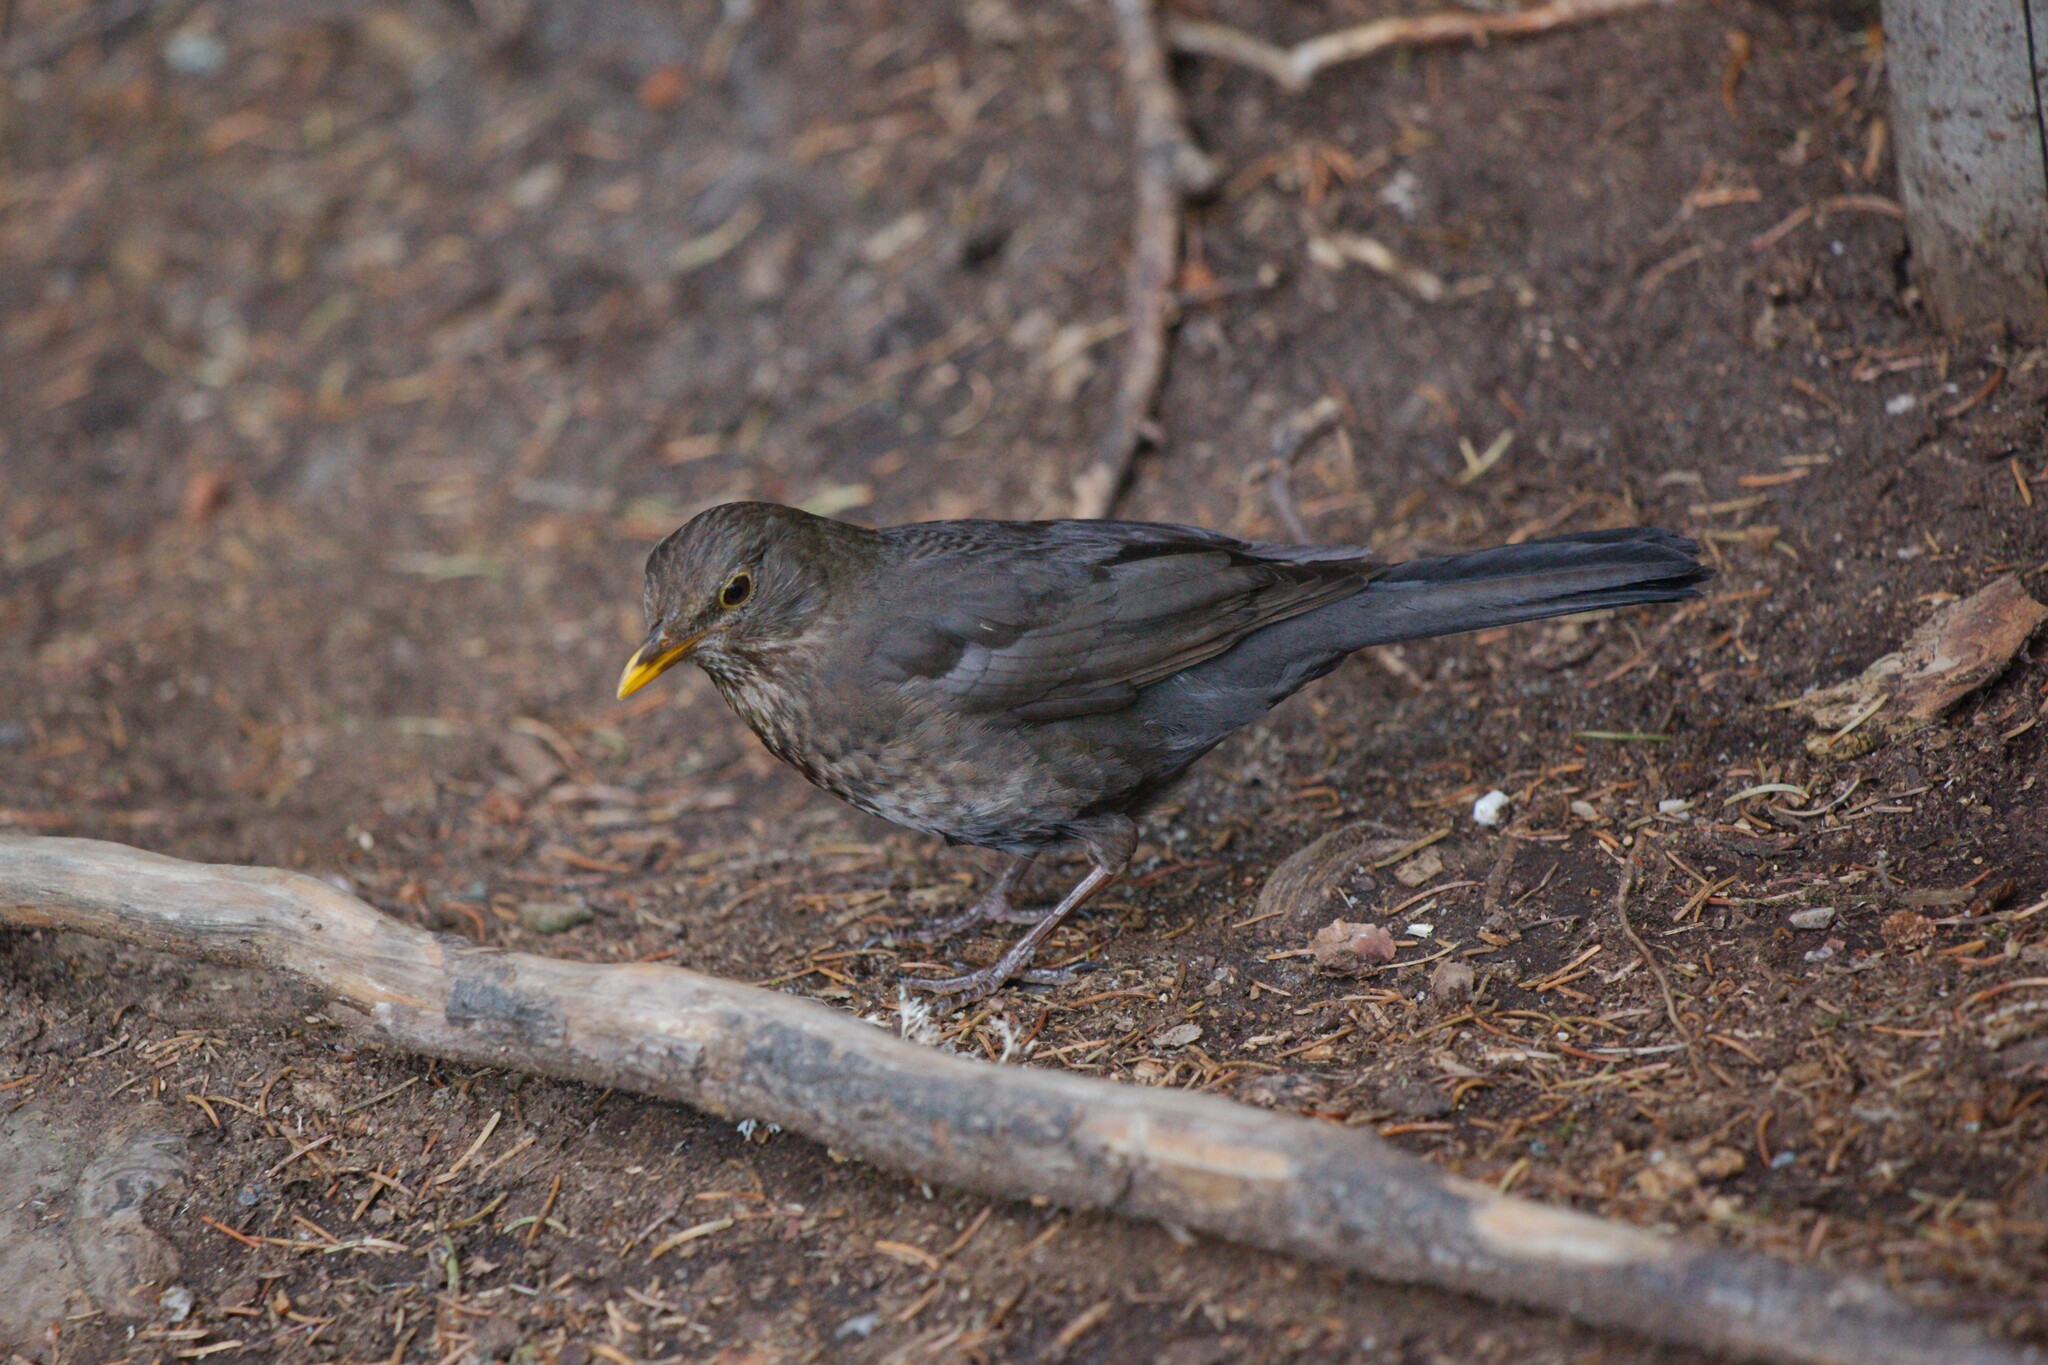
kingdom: Animalia
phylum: Chordata
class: Aves
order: Passeriformes
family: Turdidae
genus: Turdus
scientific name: Turdus merula
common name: Common blackbird
